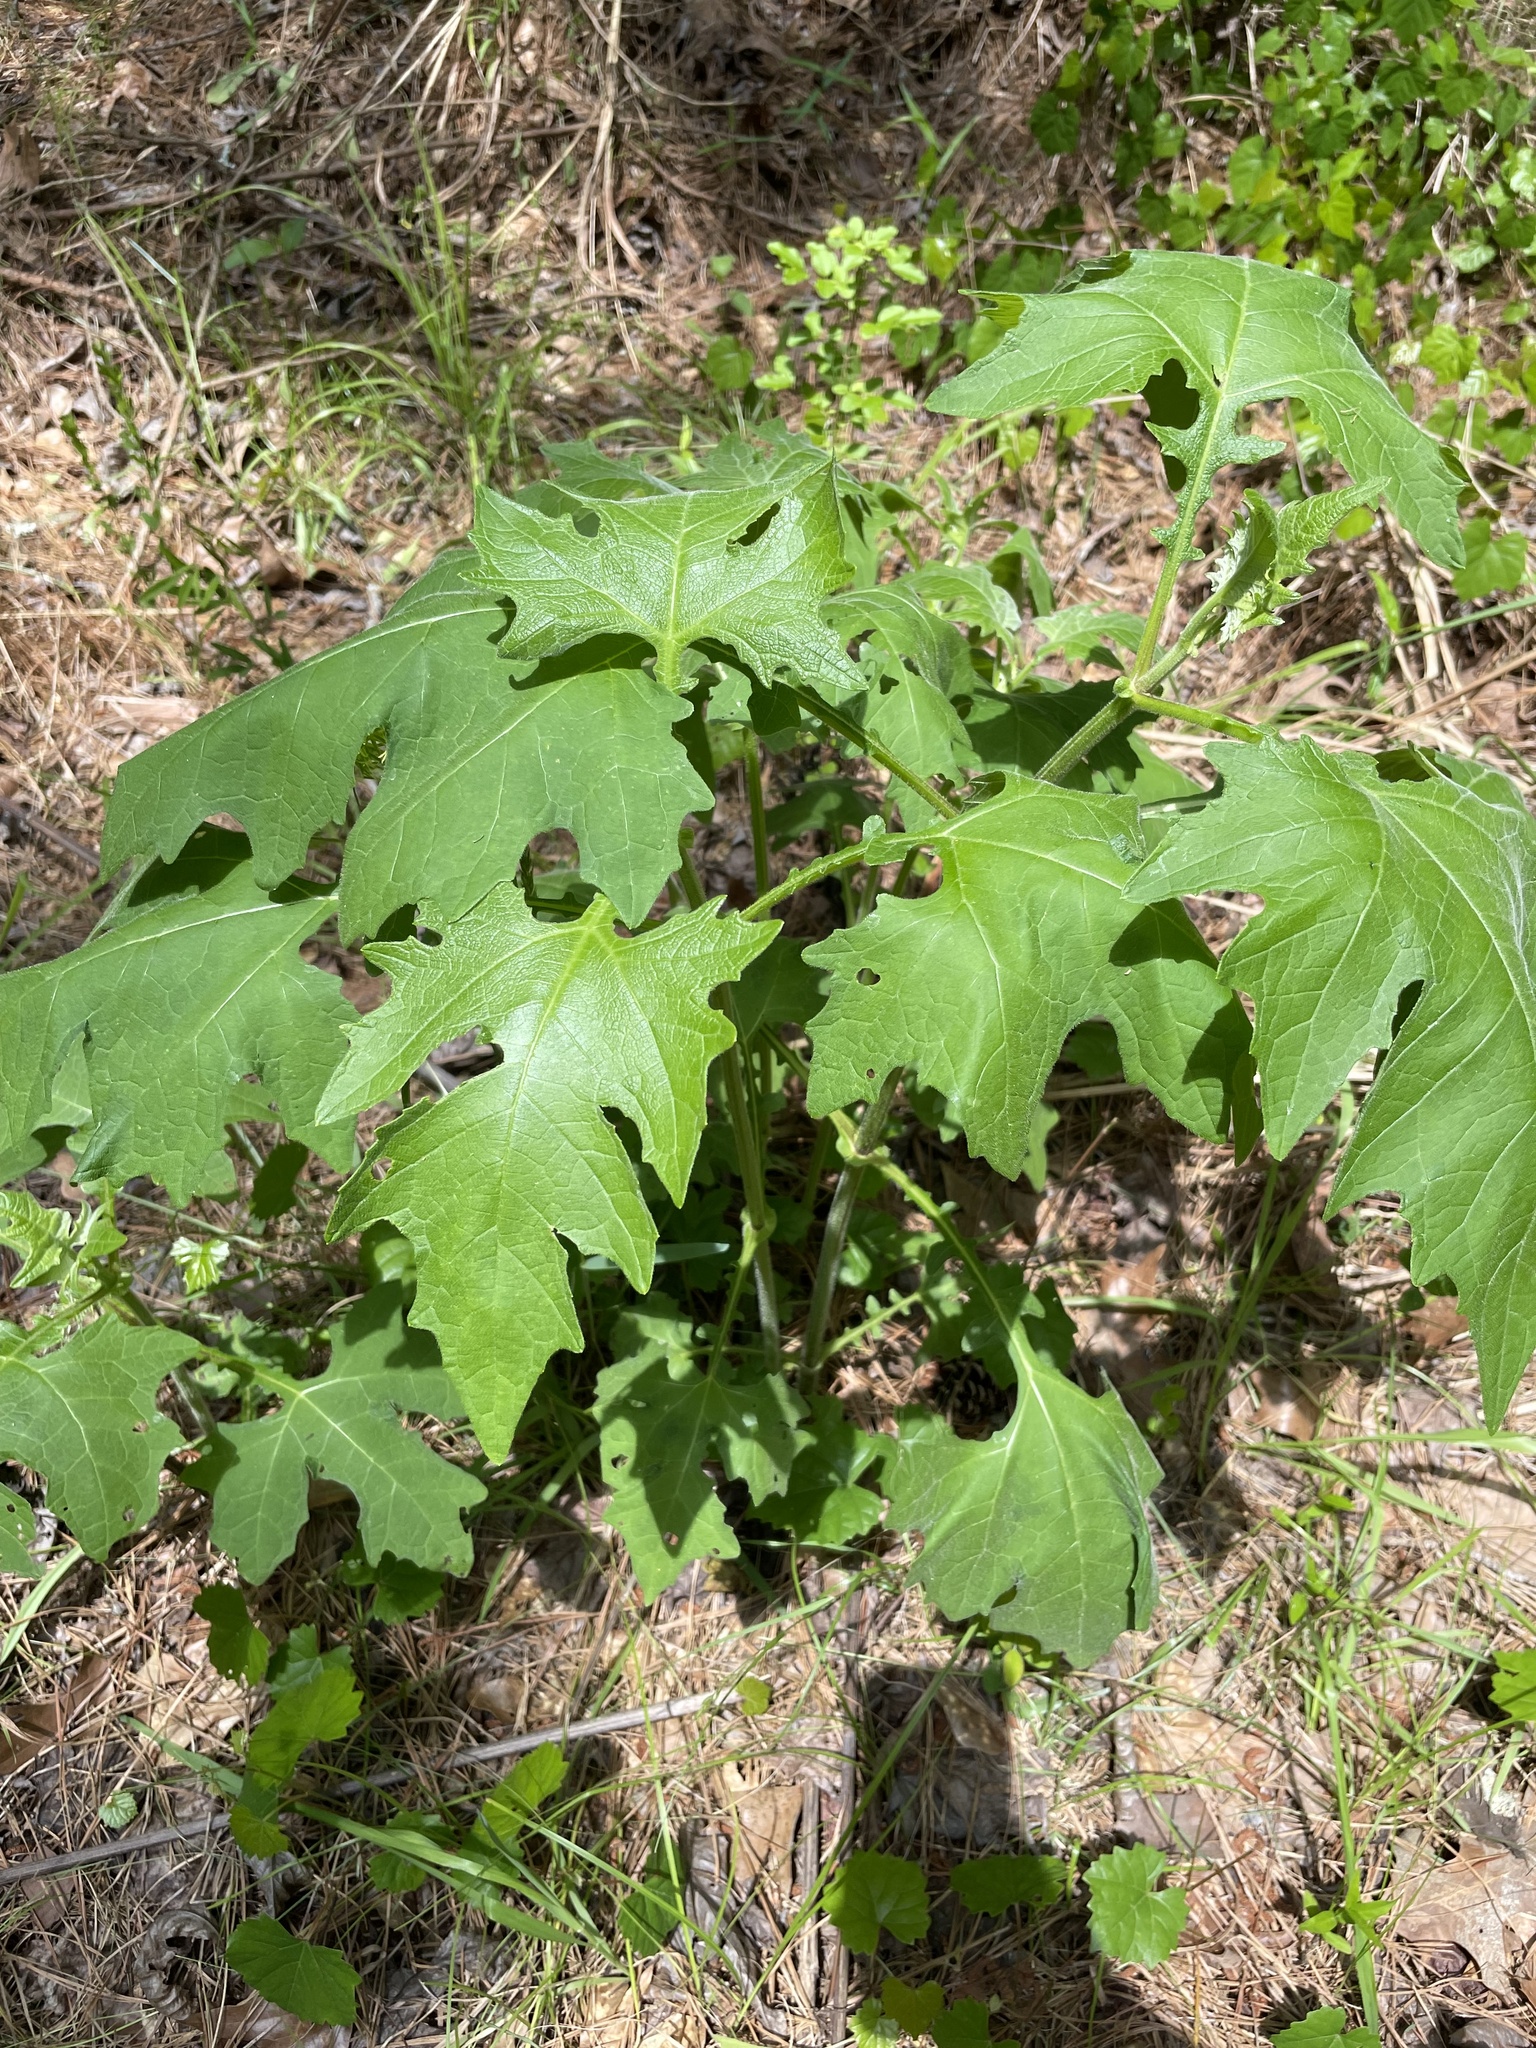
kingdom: Plantae
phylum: Tracheophyta
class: Magnoliopsida
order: Asterales
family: Asteraceae
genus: Smallanthus
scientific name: Smallanthus uvedalia
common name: Bear's-foot
